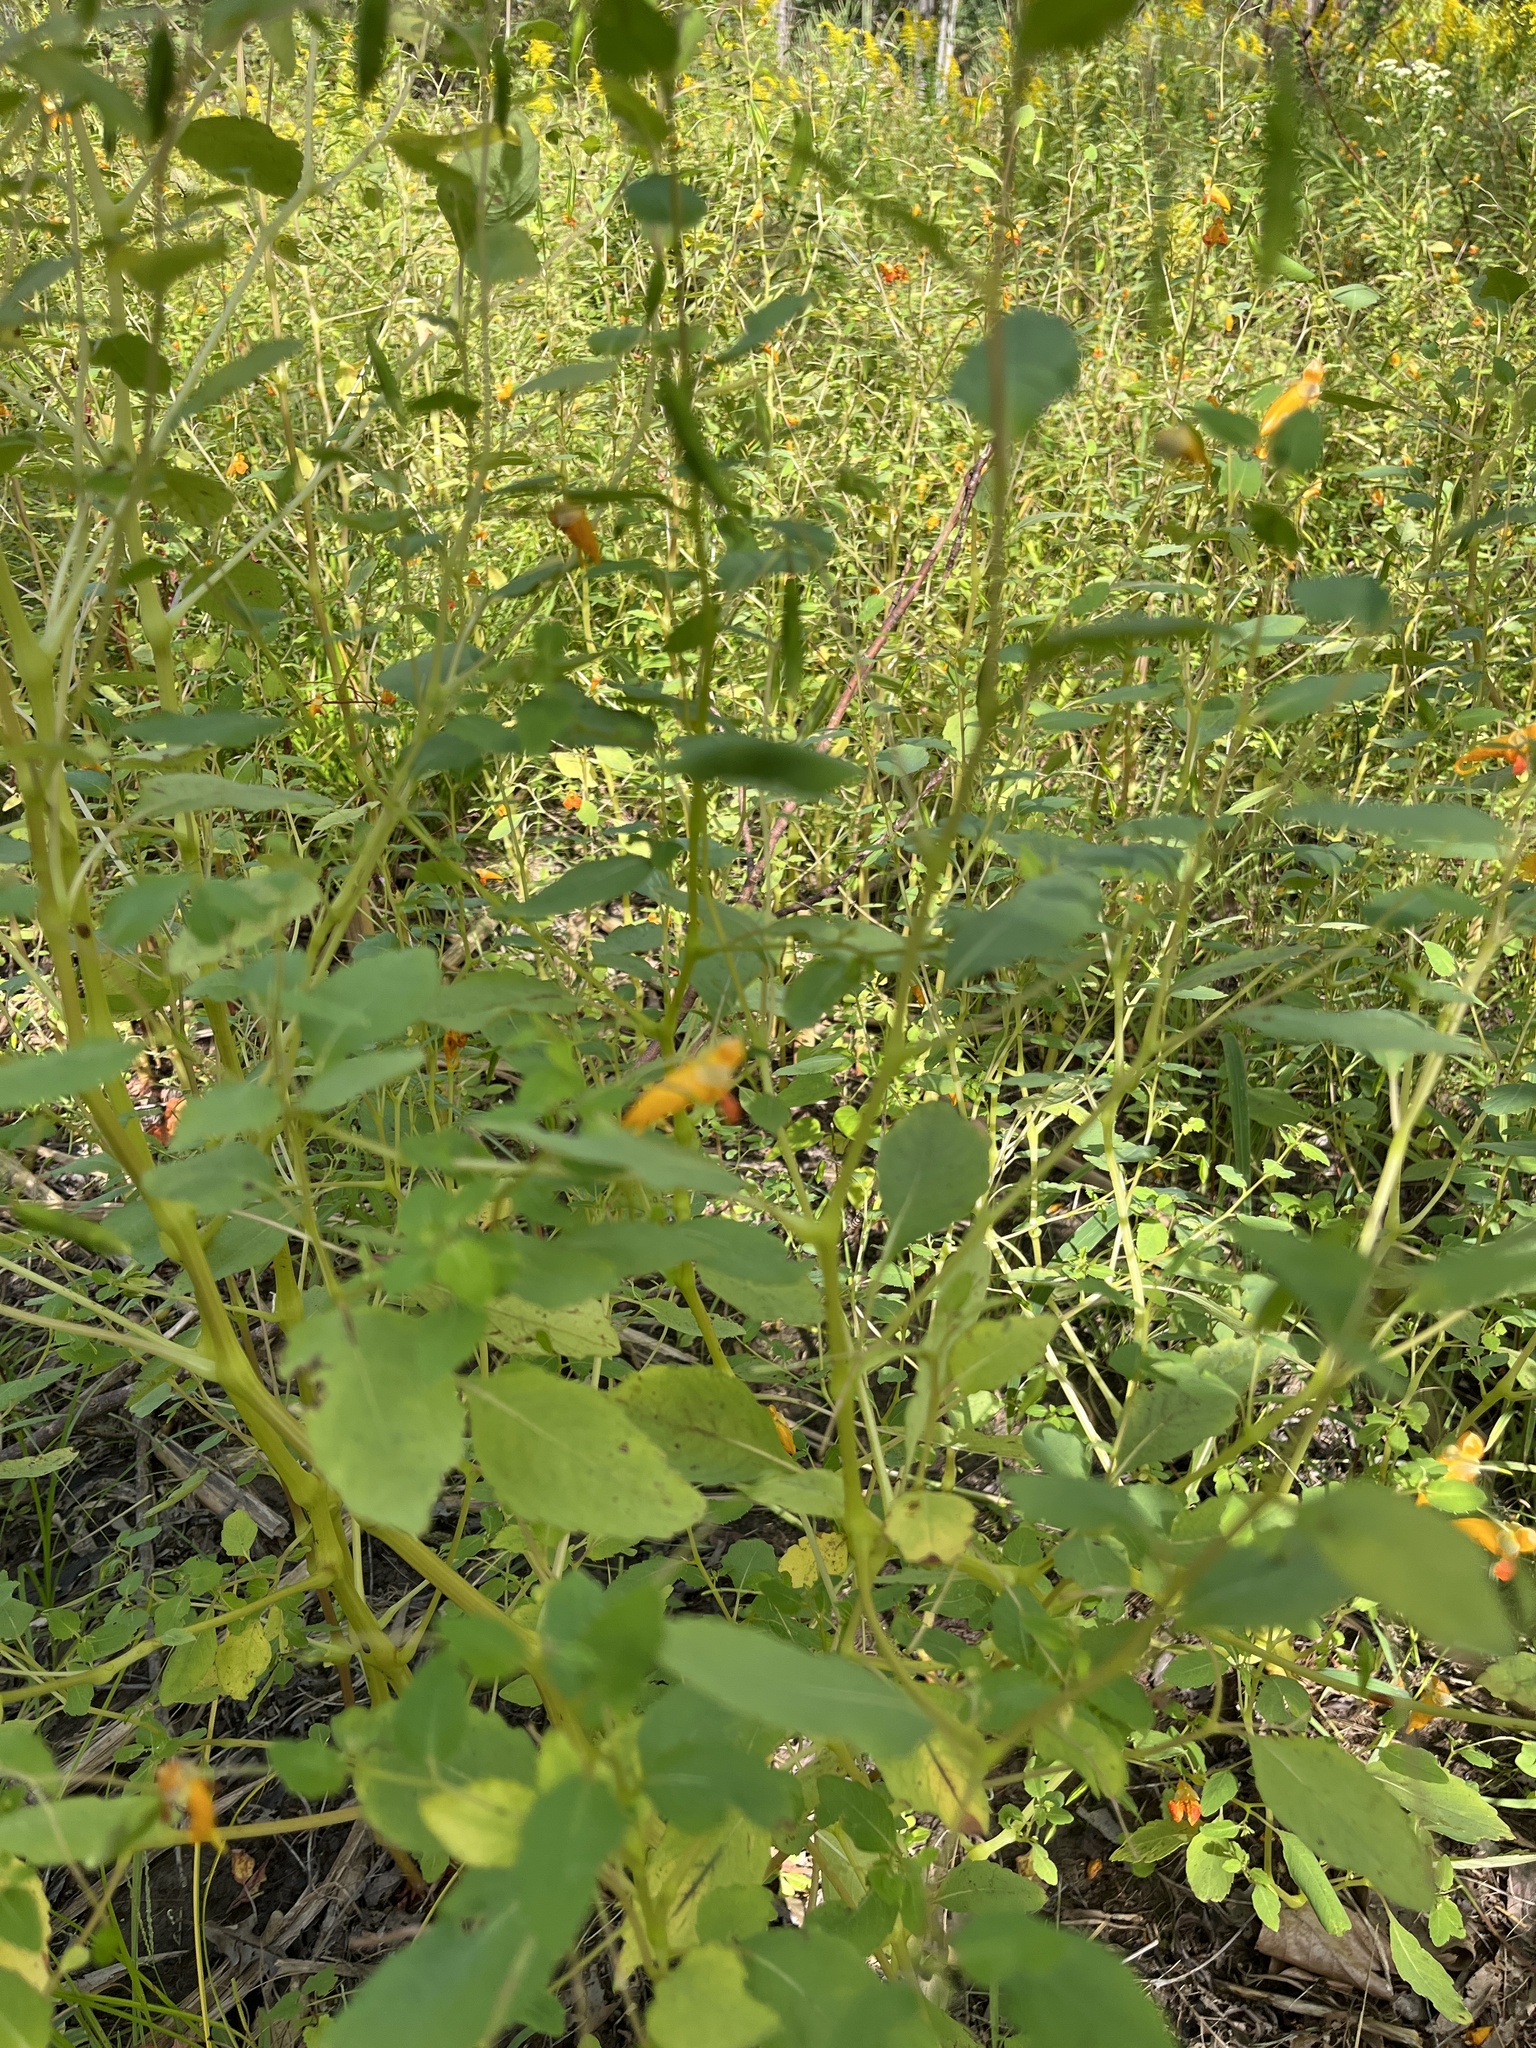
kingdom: Plantae
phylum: Tracheophyta
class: Magnoliopsida
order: Ericales
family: Balsaminaceae
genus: Impatiens
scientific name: Impatiens capensis
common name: Orange balsam
